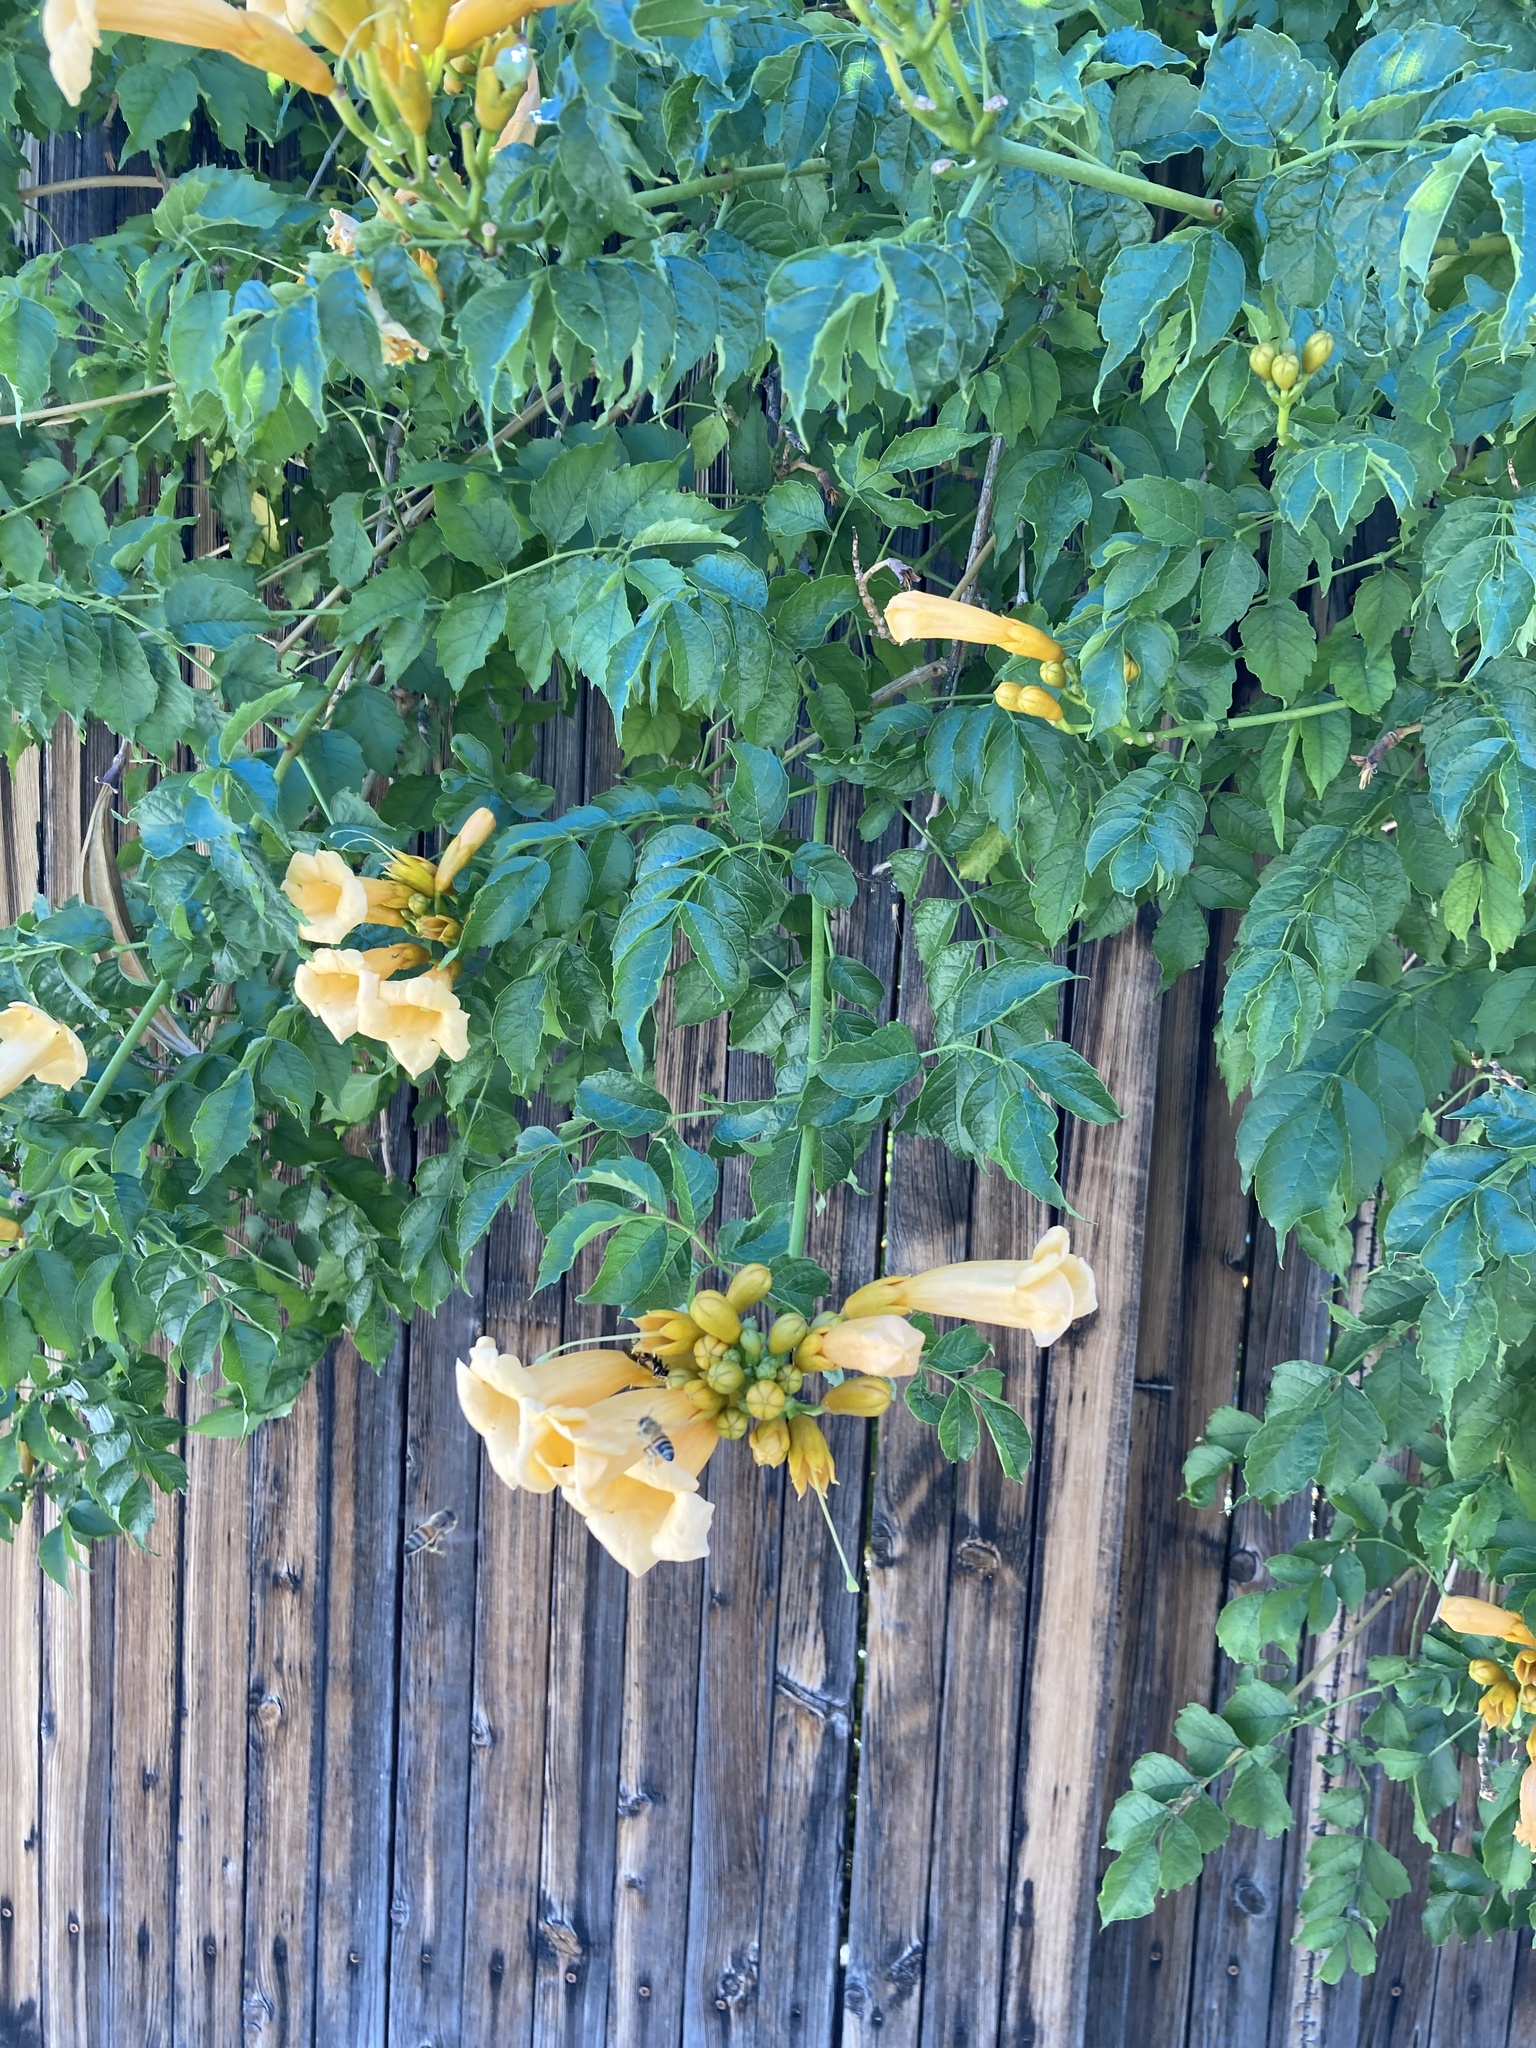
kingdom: Animalia
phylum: Arthropoda
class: Insecta
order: Hymenoptera
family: Apidae
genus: Apis
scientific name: Apis mellifera
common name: Honey bee
